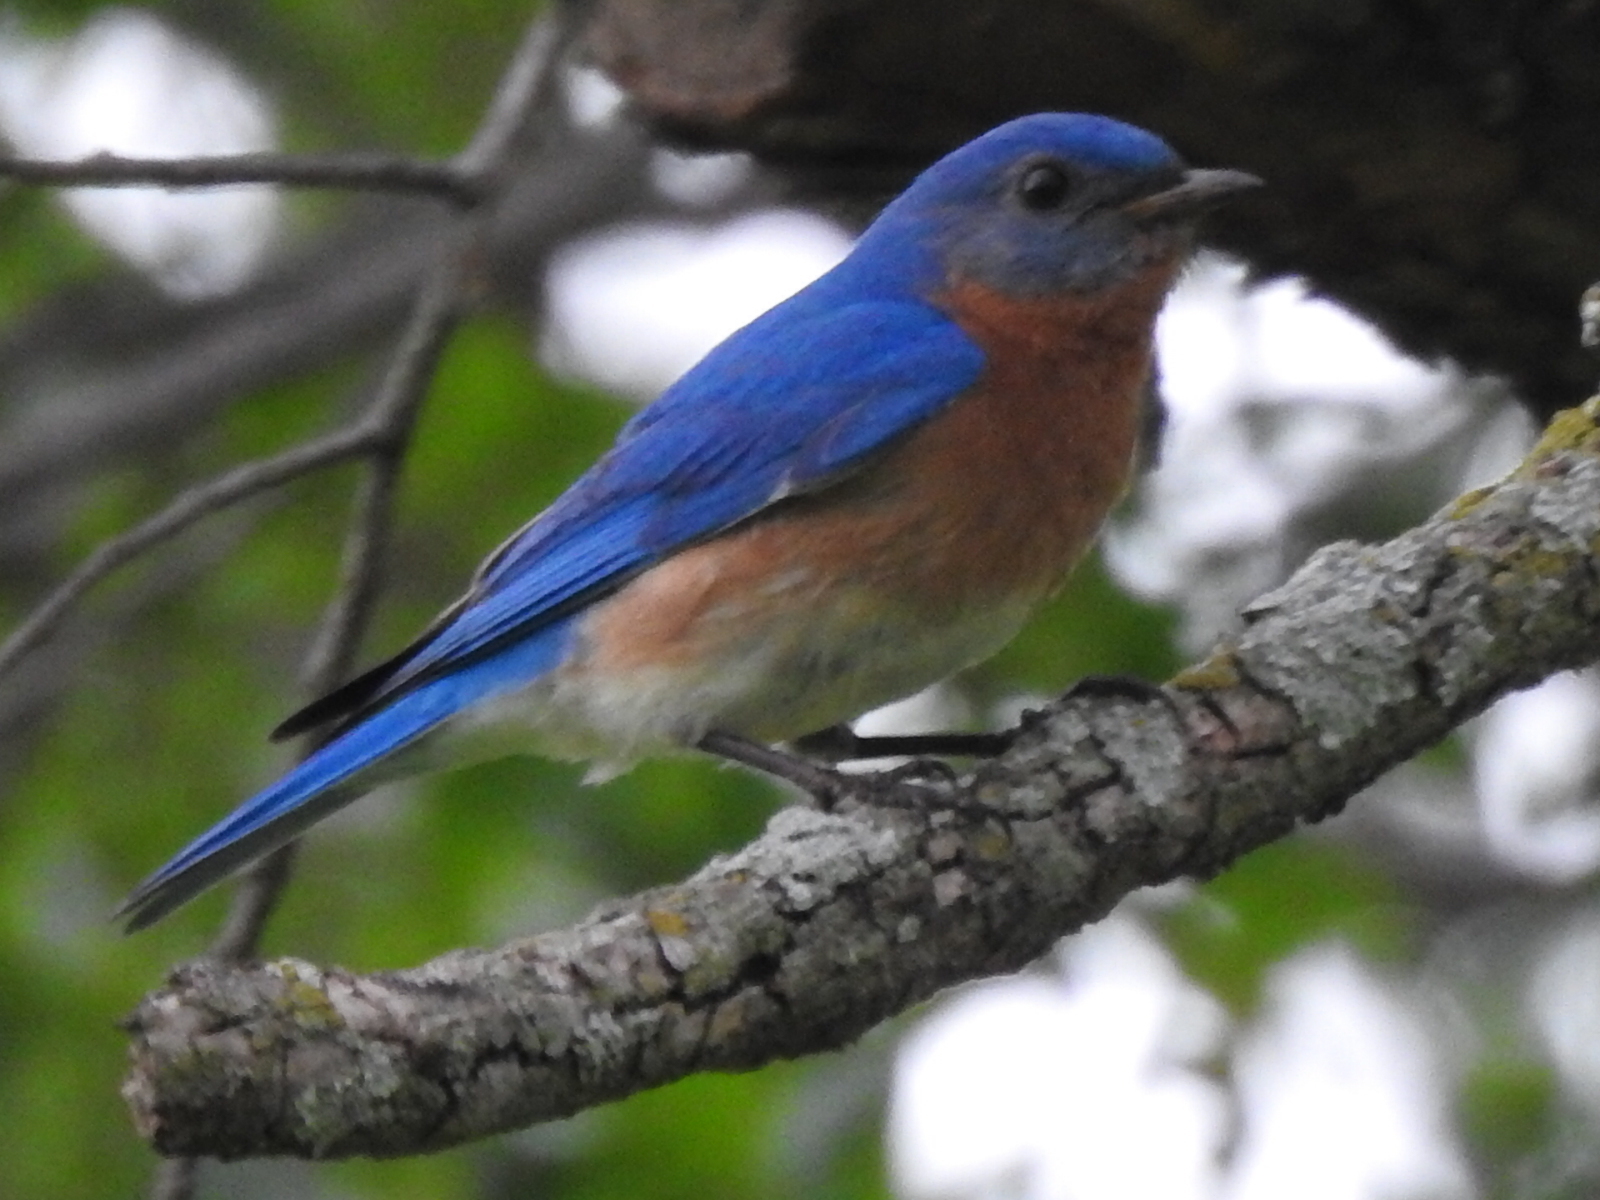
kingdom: Animalia
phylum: Chordata
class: Aves
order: Passeriformes
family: Turdidae
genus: Sialia
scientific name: Sialia sialis
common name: Eastern bluebird
